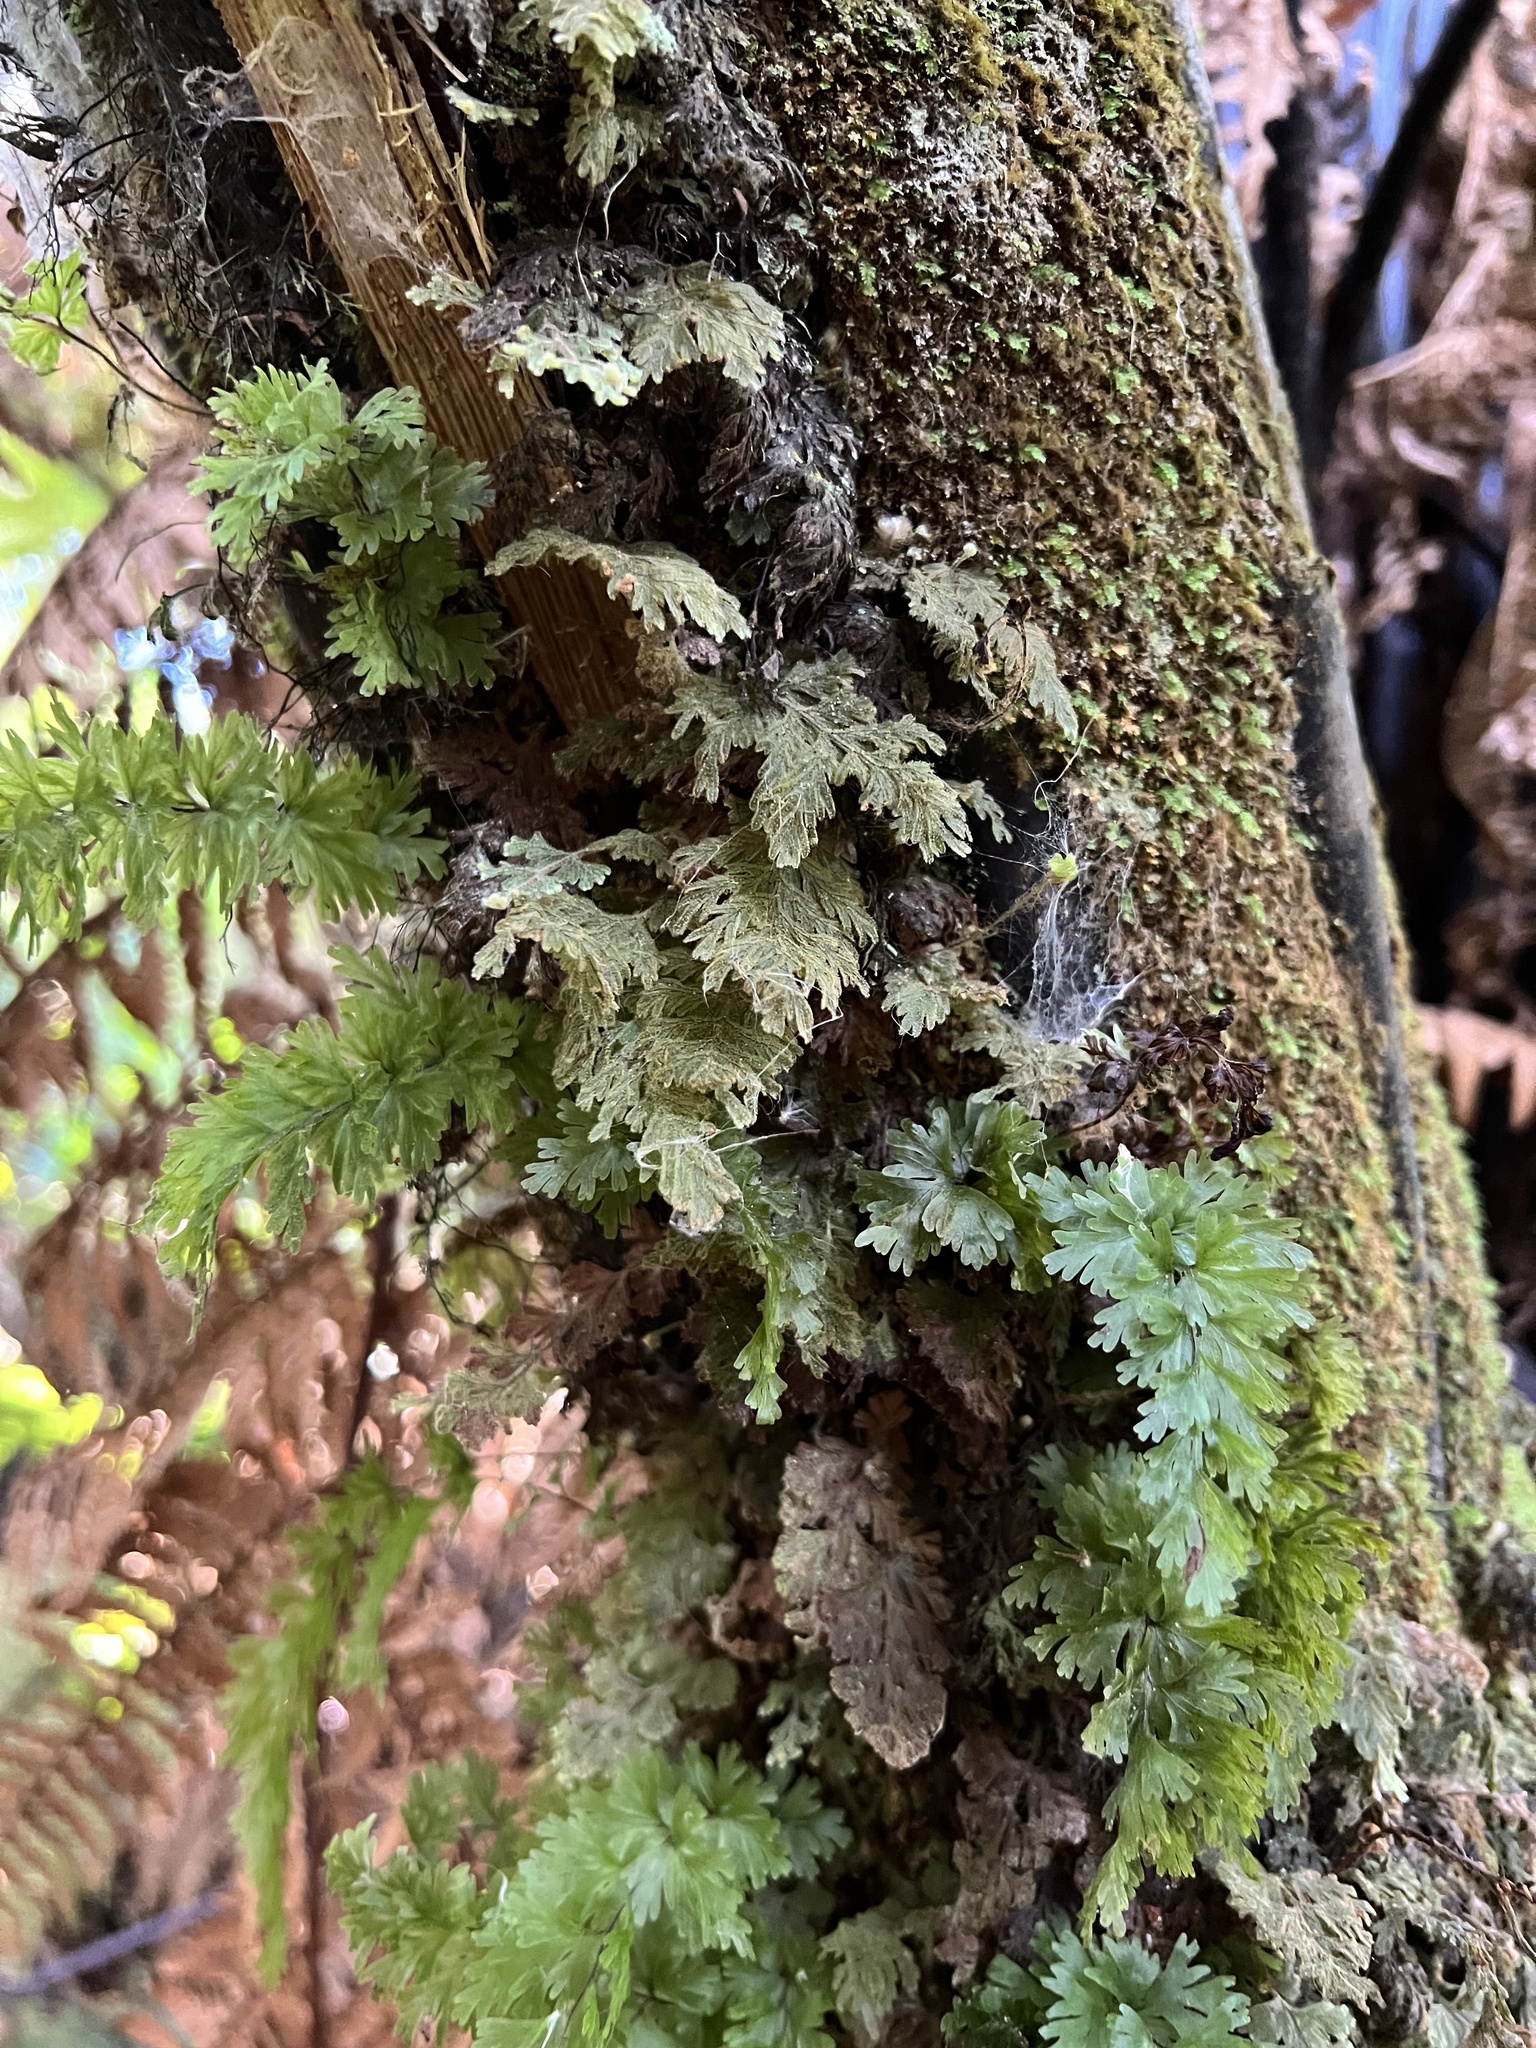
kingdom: Plantae
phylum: Tracheophyta
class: Polypodiopsida
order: Hymenophyllales
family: Hymenophyllaceae
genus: Hymenophyllum
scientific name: Hymenophyllum frankliniae
